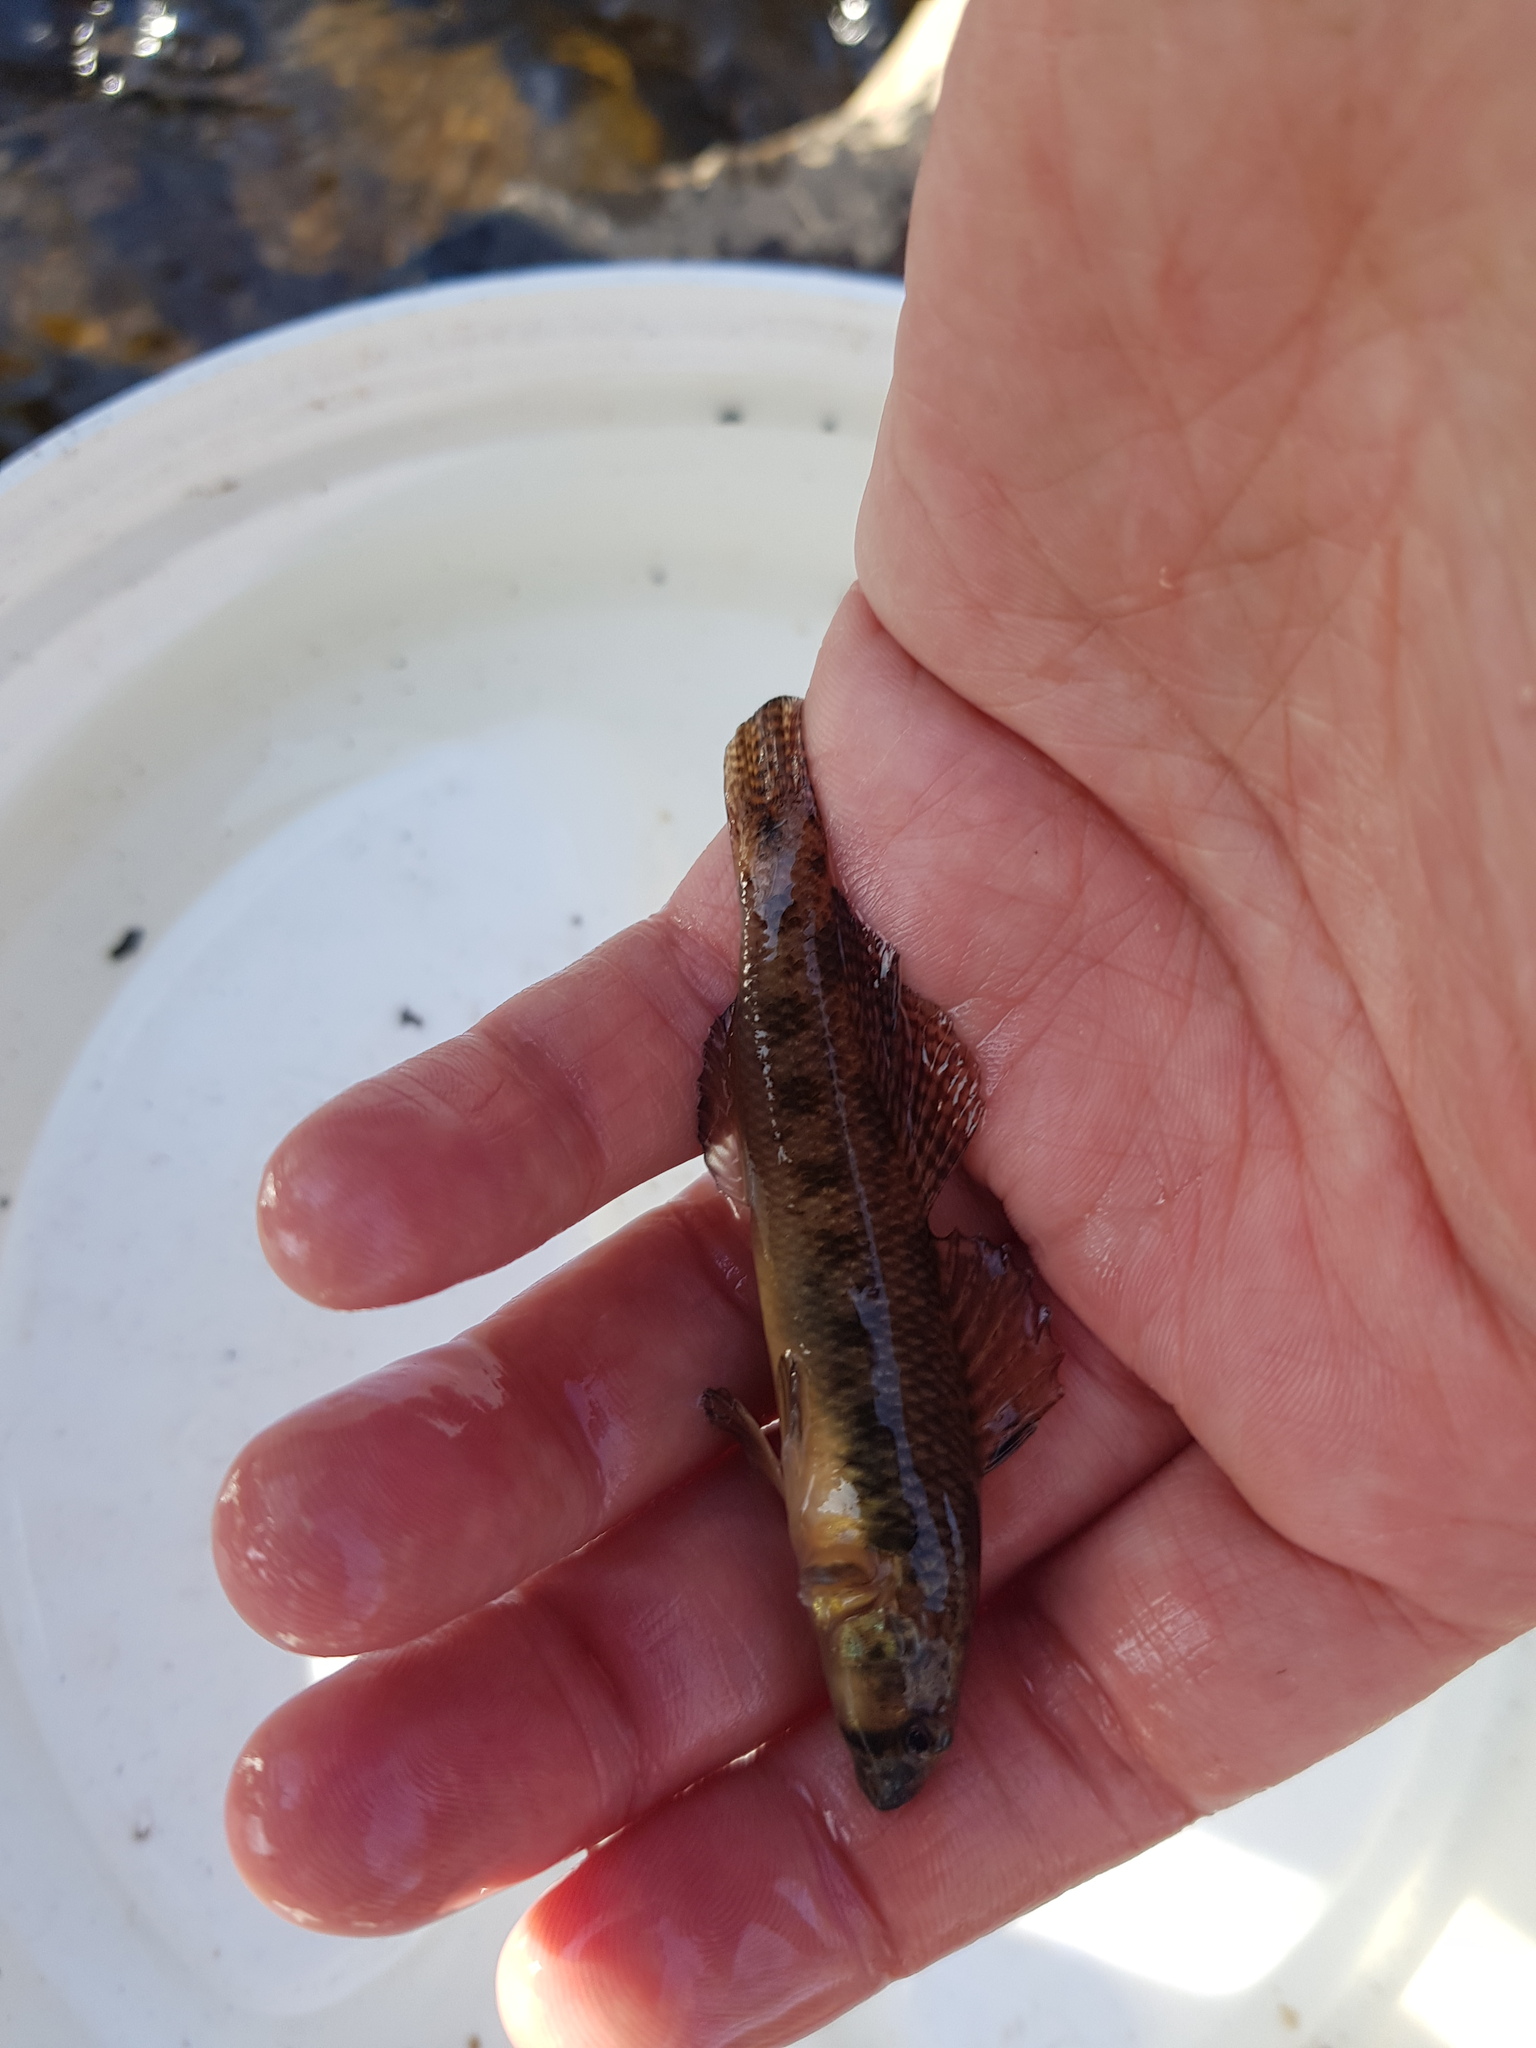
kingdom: Animalia
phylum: Chordata
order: Perciformes
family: Percidae
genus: Etheostoma
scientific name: Etheostoma olmstedi
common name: Tessellated darter
